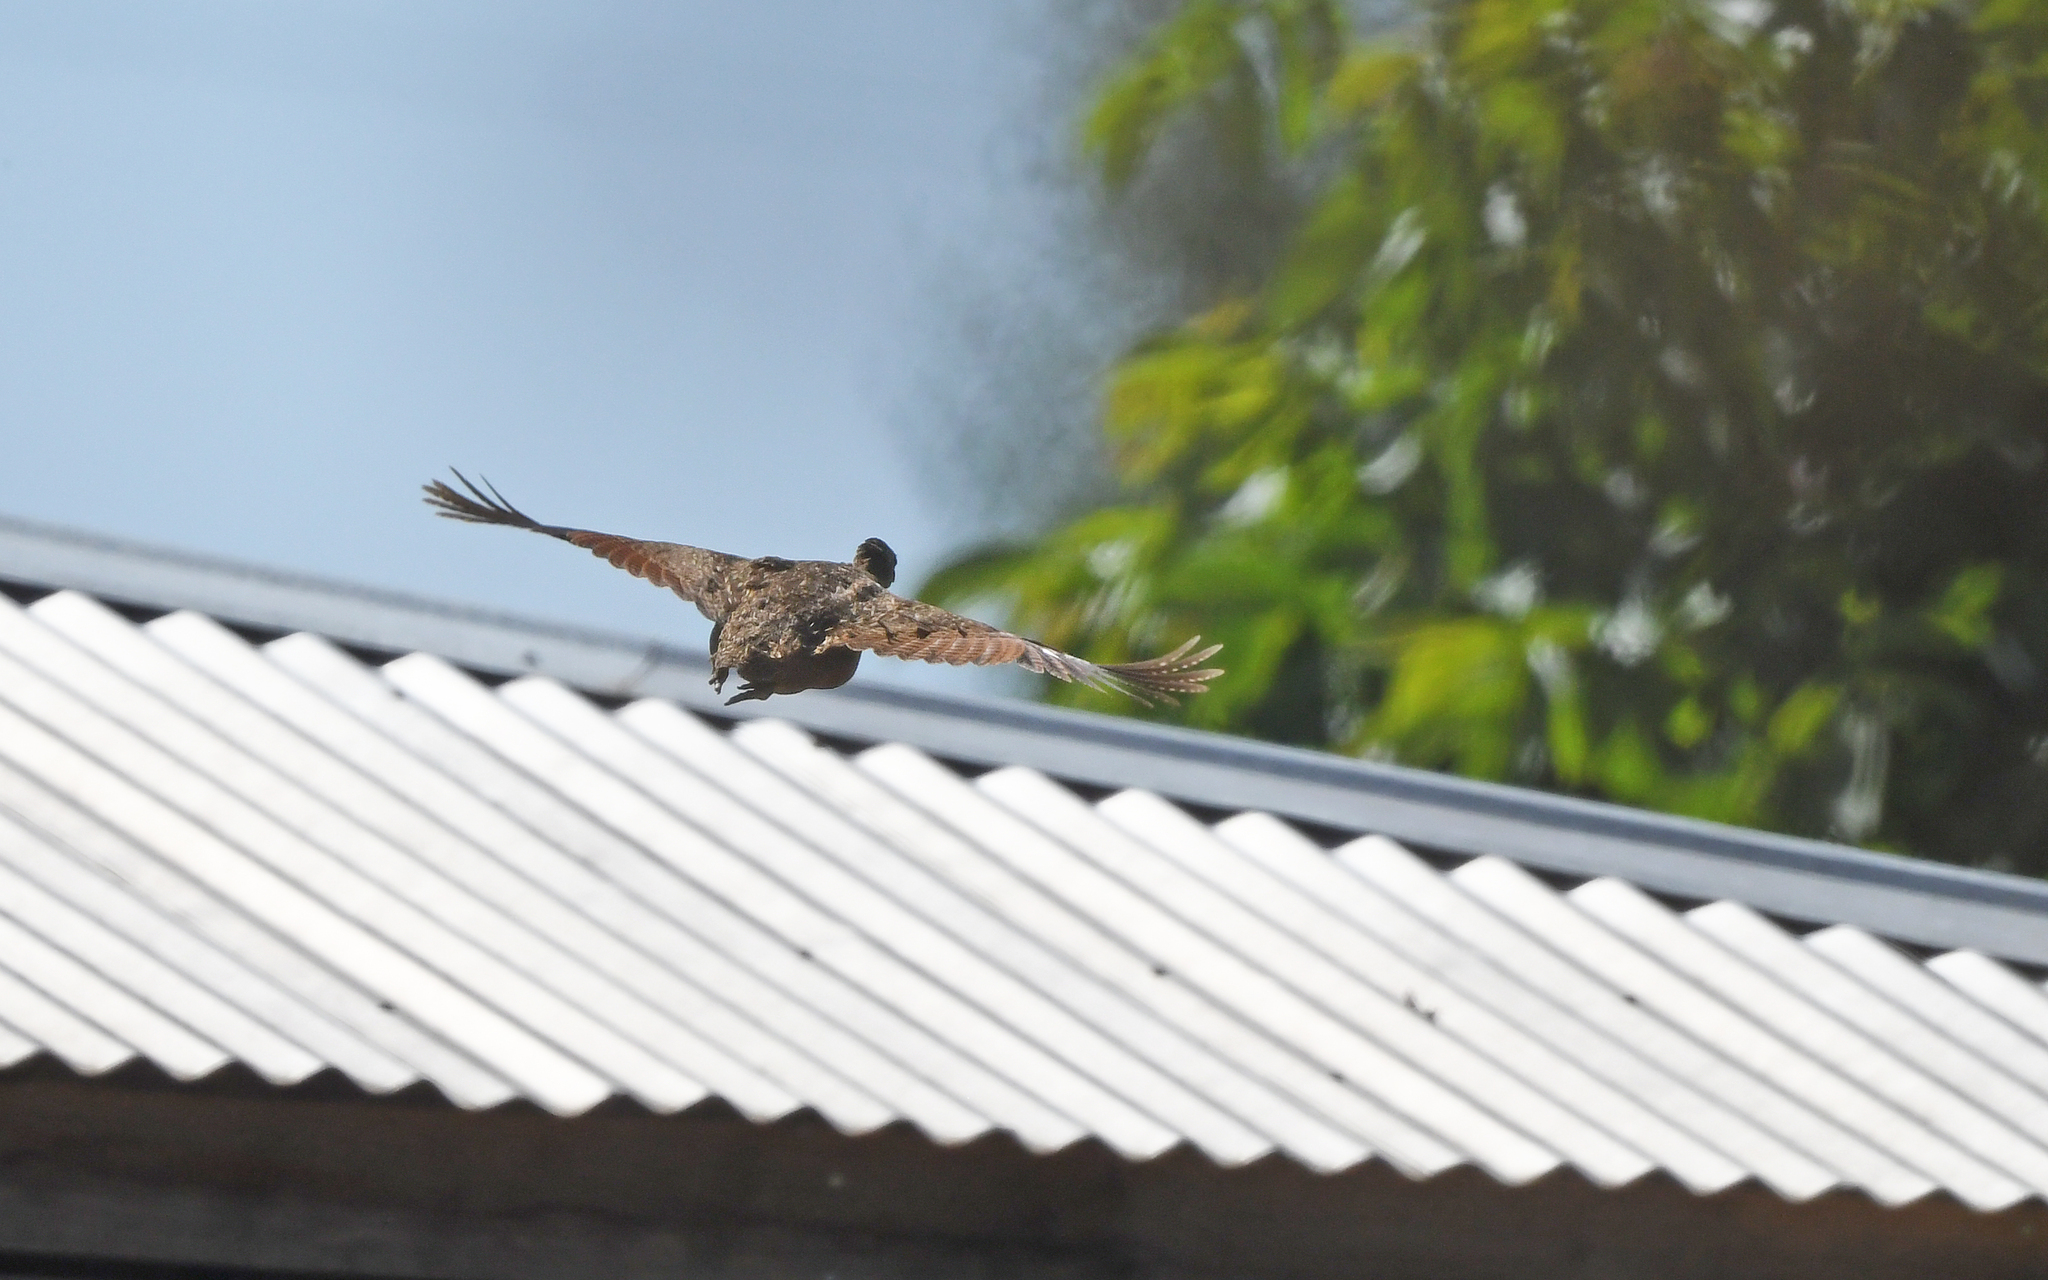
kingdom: Animalia
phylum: Chordata
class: Aves
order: Tinamiformes
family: Tinamidae
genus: Nothoprocta
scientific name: Nothoprocta perdicaria
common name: Chilean tinamou
